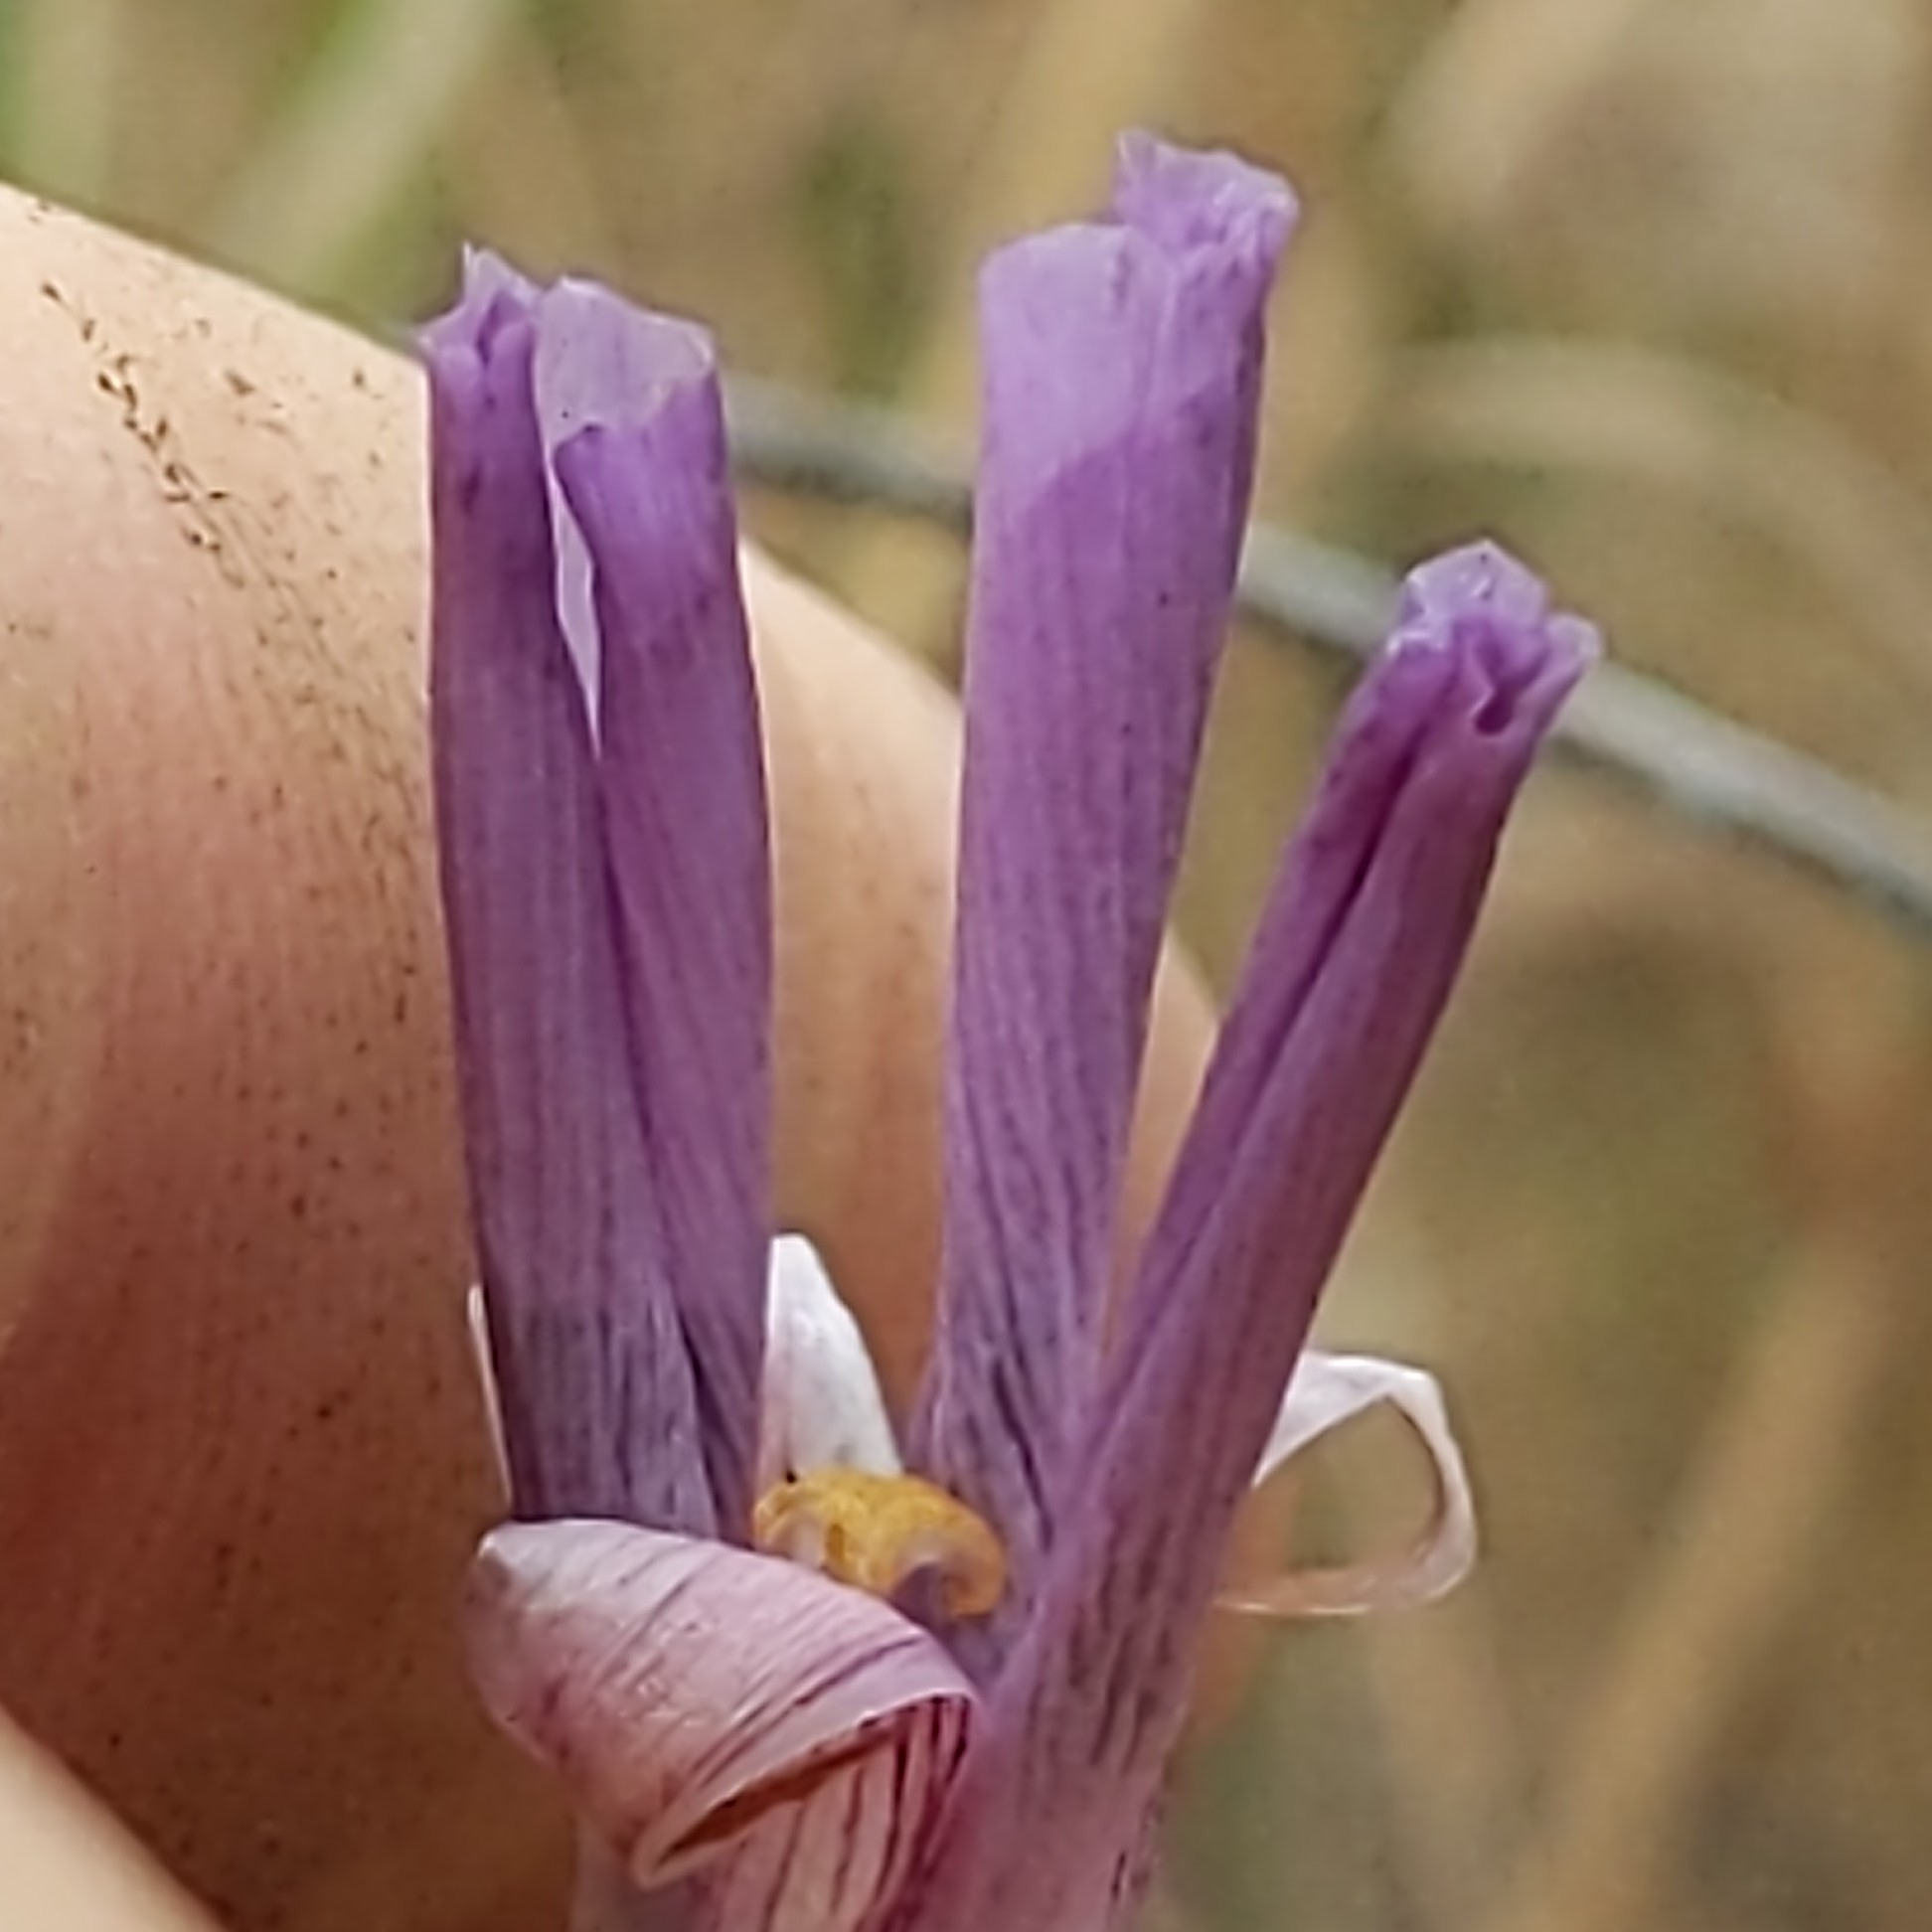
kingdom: Plantae
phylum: Tracheophyta
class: Liliopsida
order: Liliales
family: Liliaceae
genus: Calochortus
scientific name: Calochortus splendens
